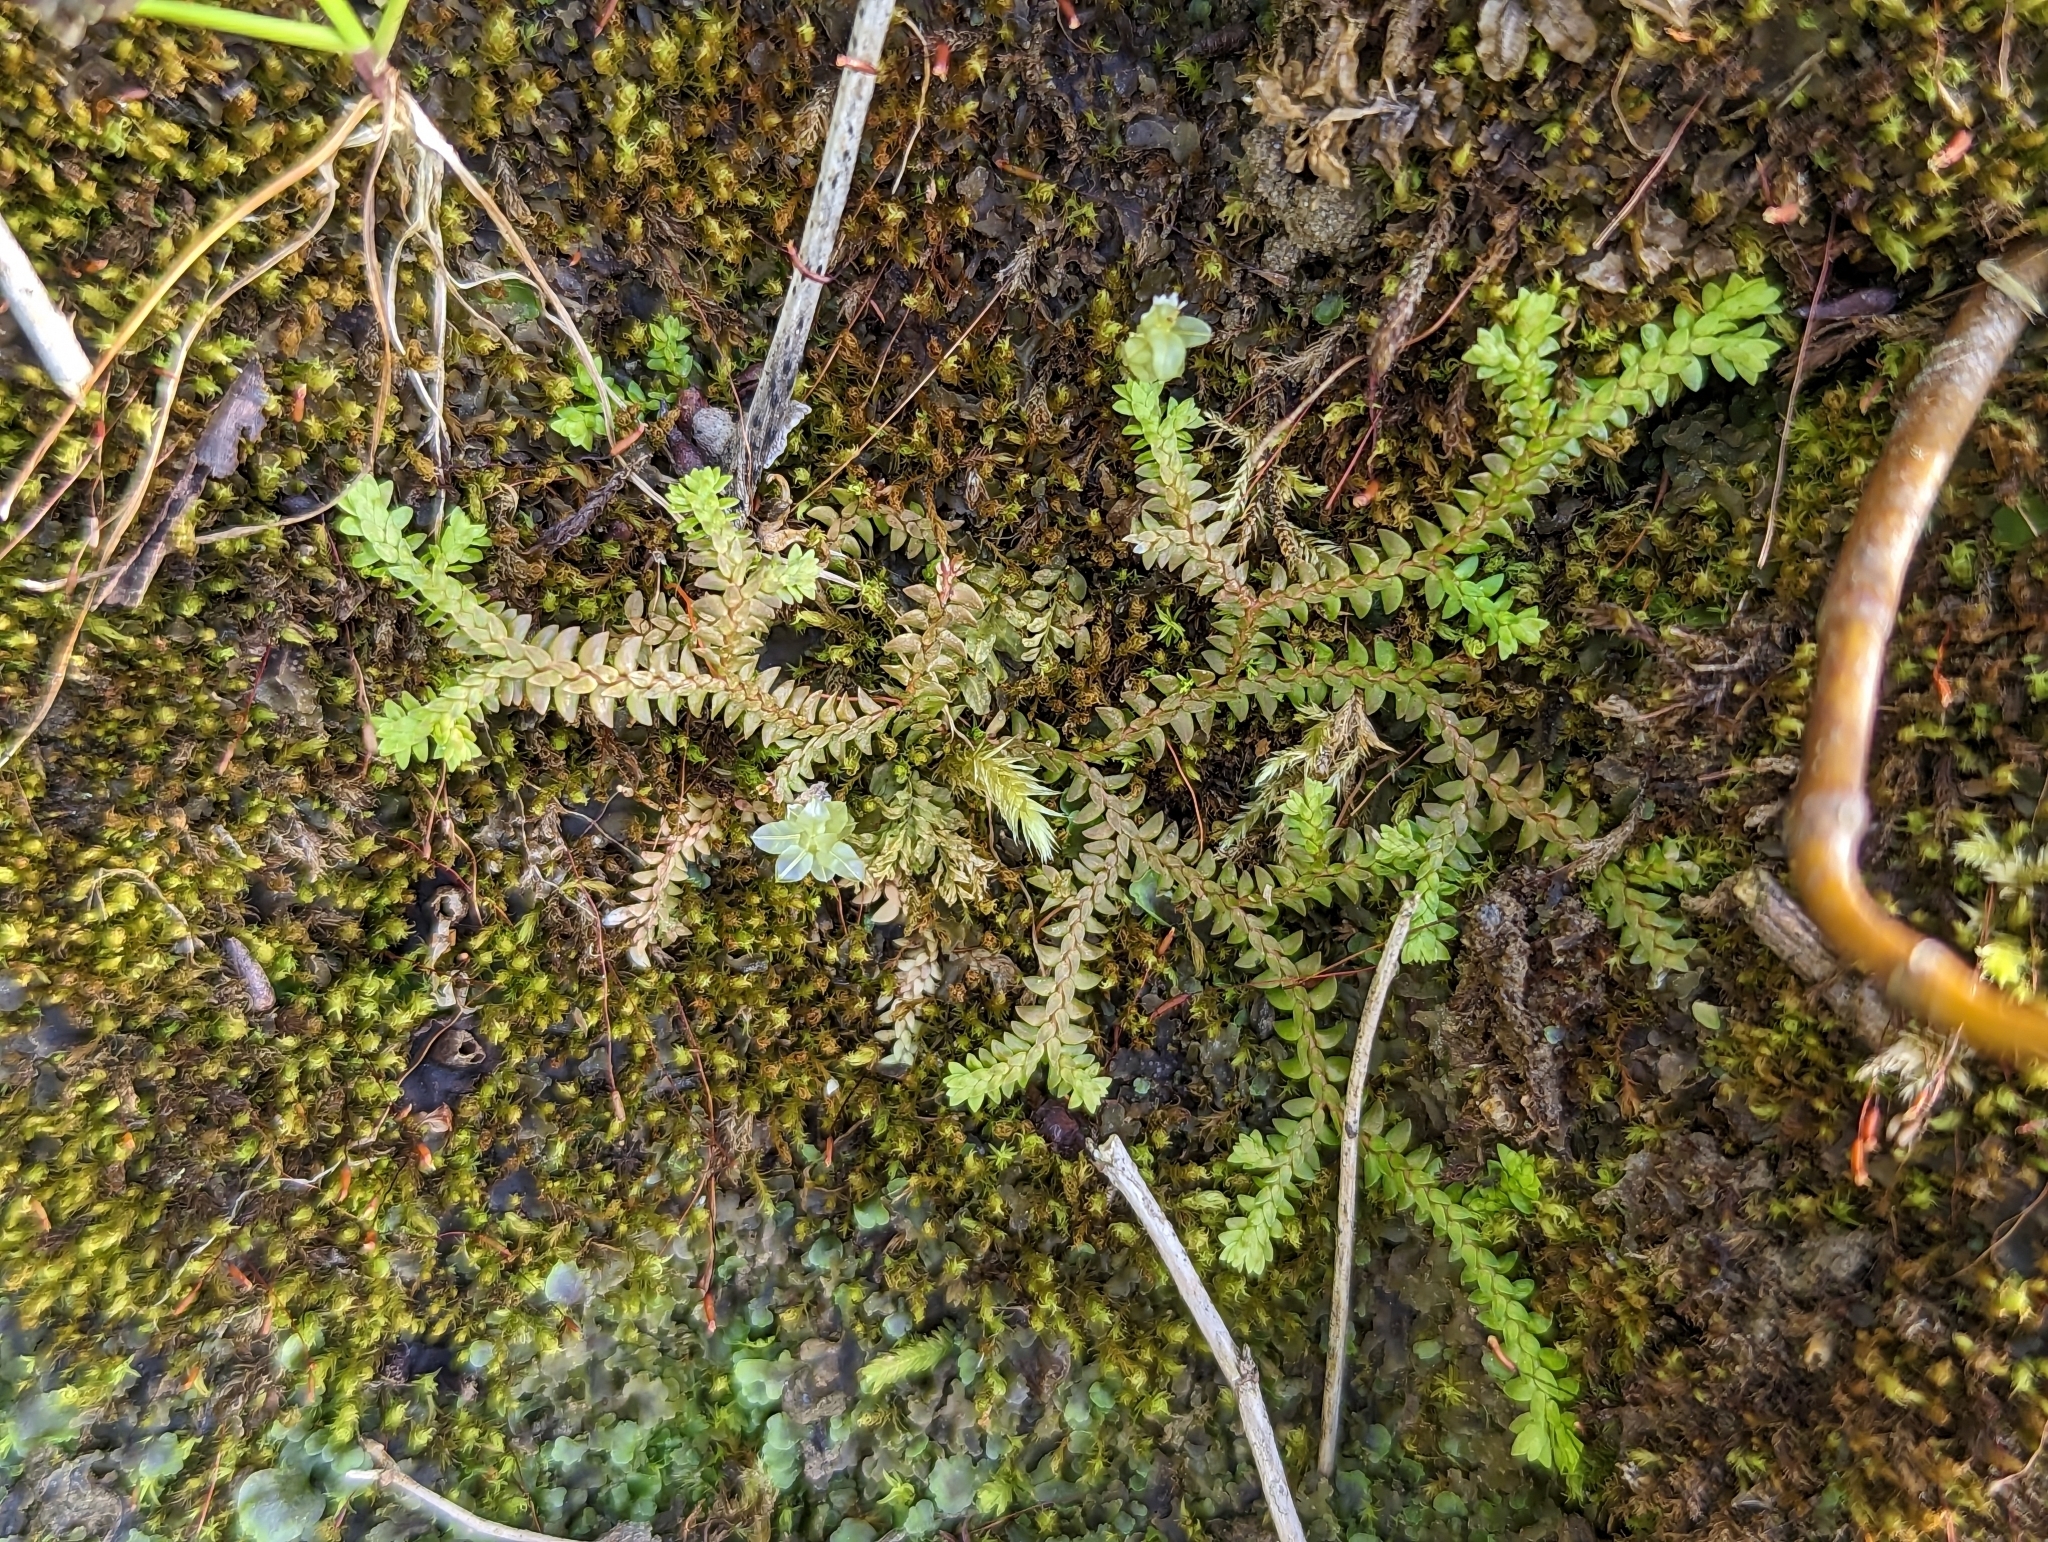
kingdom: Plantae
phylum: Tracheophyta
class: Lycopodiopsida
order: Selaginellales
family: Selaginellaceae
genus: Selaginella
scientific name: Selaginella helvetica
